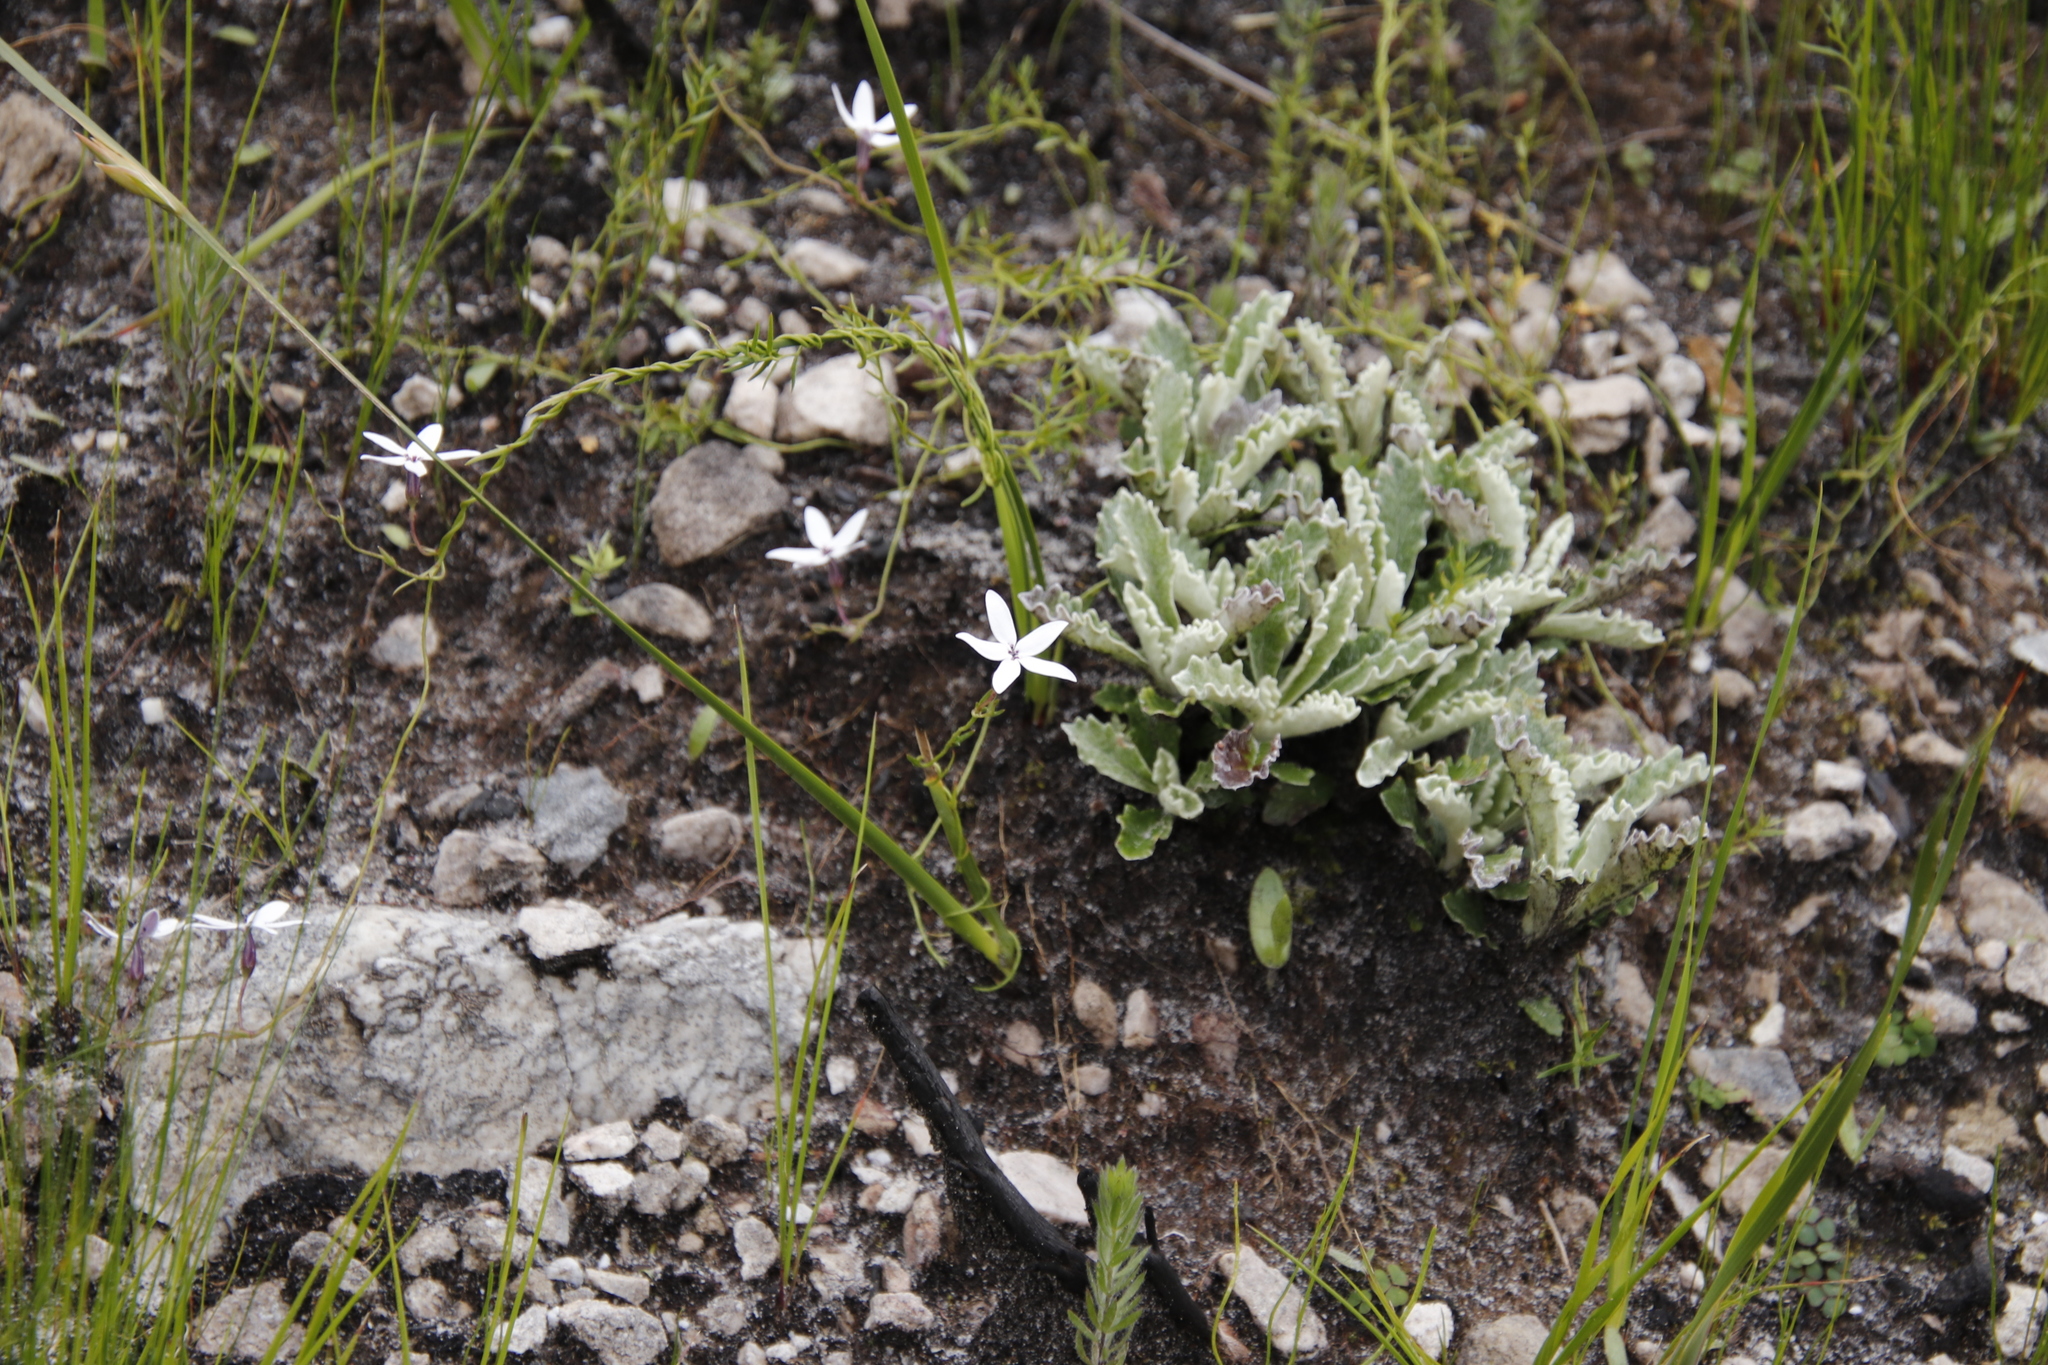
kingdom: Plantae
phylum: Tracheophyta
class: Magnoliopsida
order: Asterales
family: Campanulaceae
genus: Cyphia
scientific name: Cyphia volubilis
